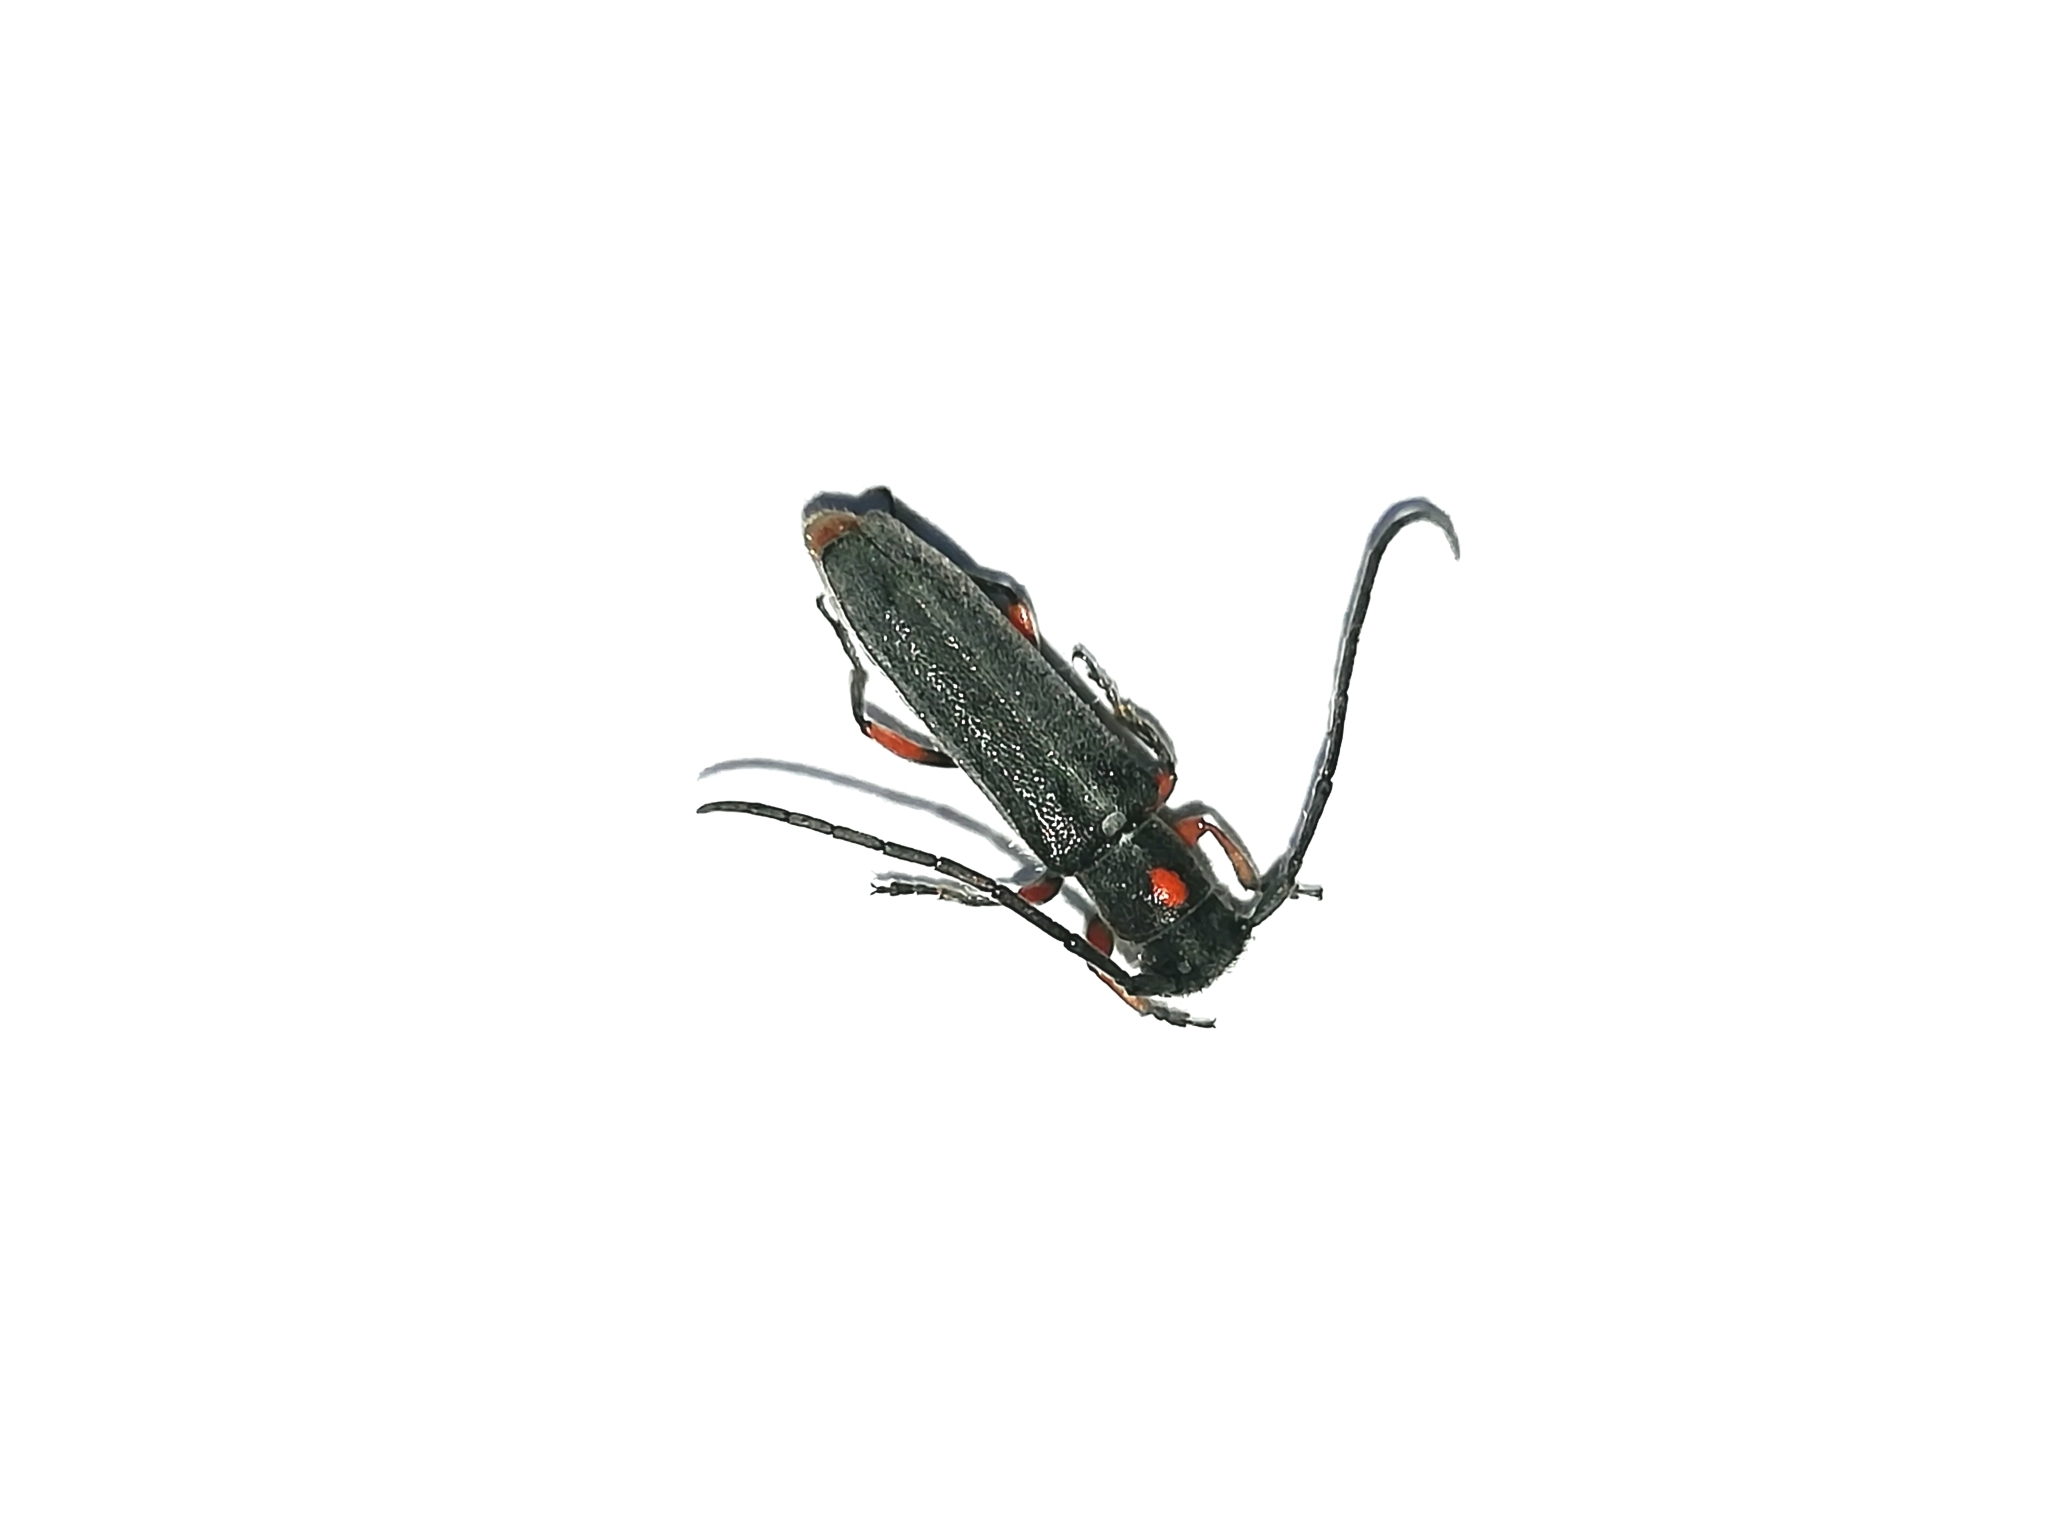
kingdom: Animalia
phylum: Arthropoda
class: Insecta
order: Coleoptera
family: Cerambycidae
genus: Phytoecia
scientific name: Phytoecia virgula
